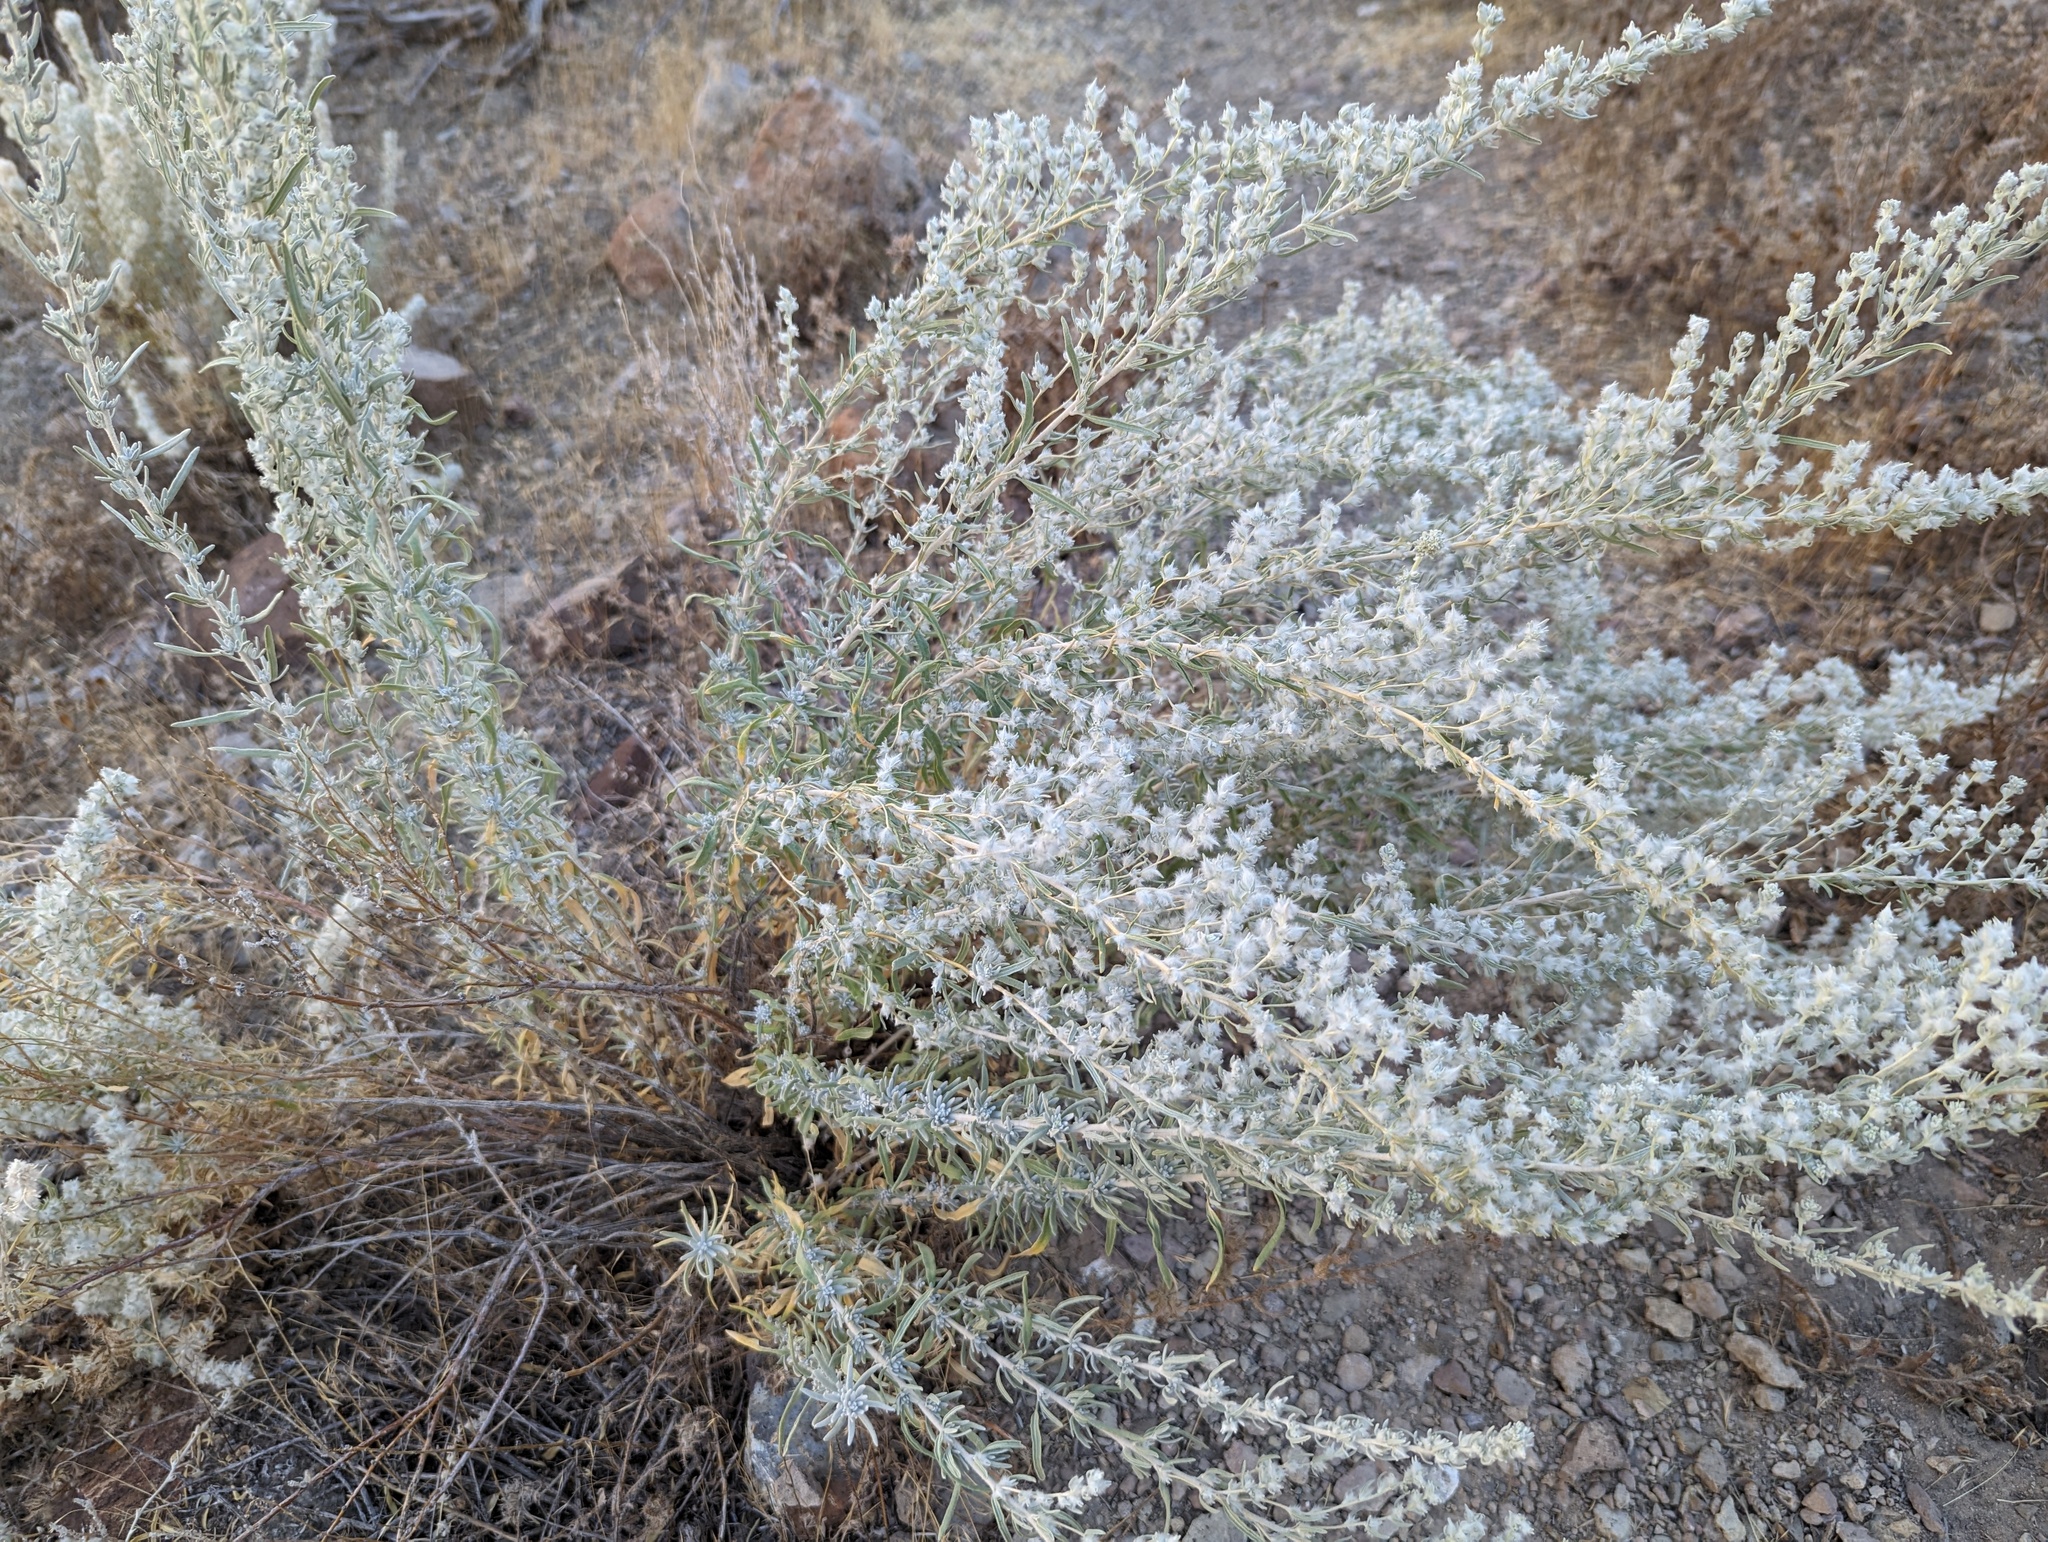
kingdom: Plantae
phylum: Tracheophyta
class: Magnoliopsida
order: Caryophyllales
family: Amaranthaceae
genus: Krascheninnikovia
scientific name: Krascheninnikovia lanata
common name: Winterfat
